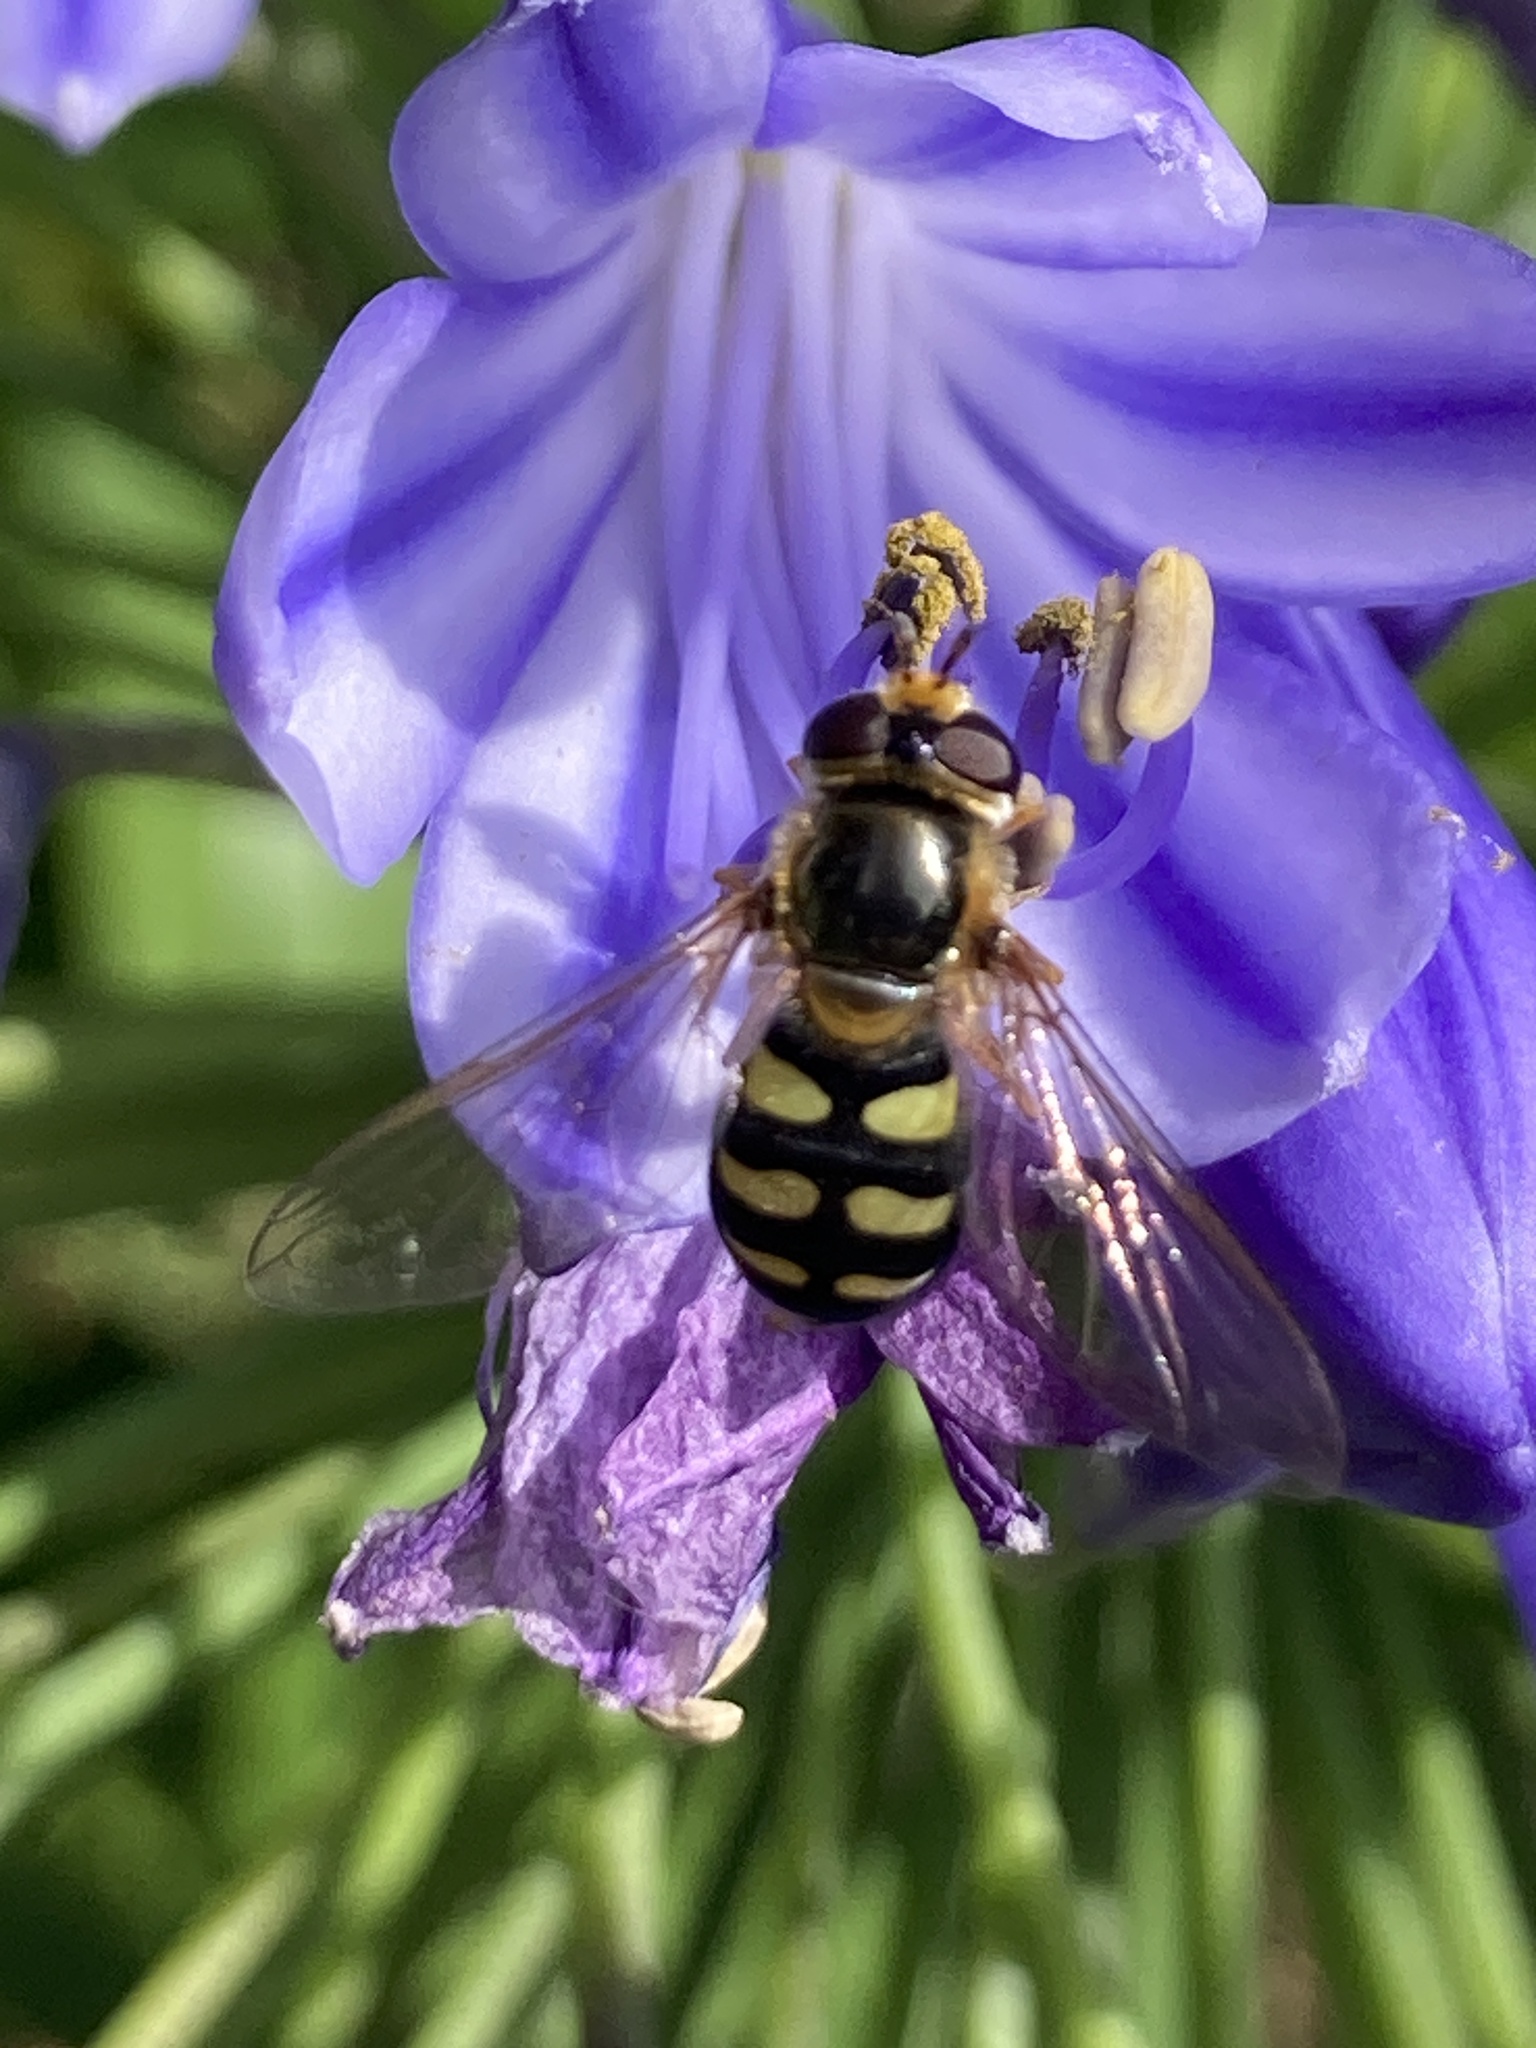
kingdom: Animalia
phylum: Arthropoda
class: Insecta
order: Diptera
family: Syrphidae
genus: Eupeodes
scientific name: Eupeodes luniger
